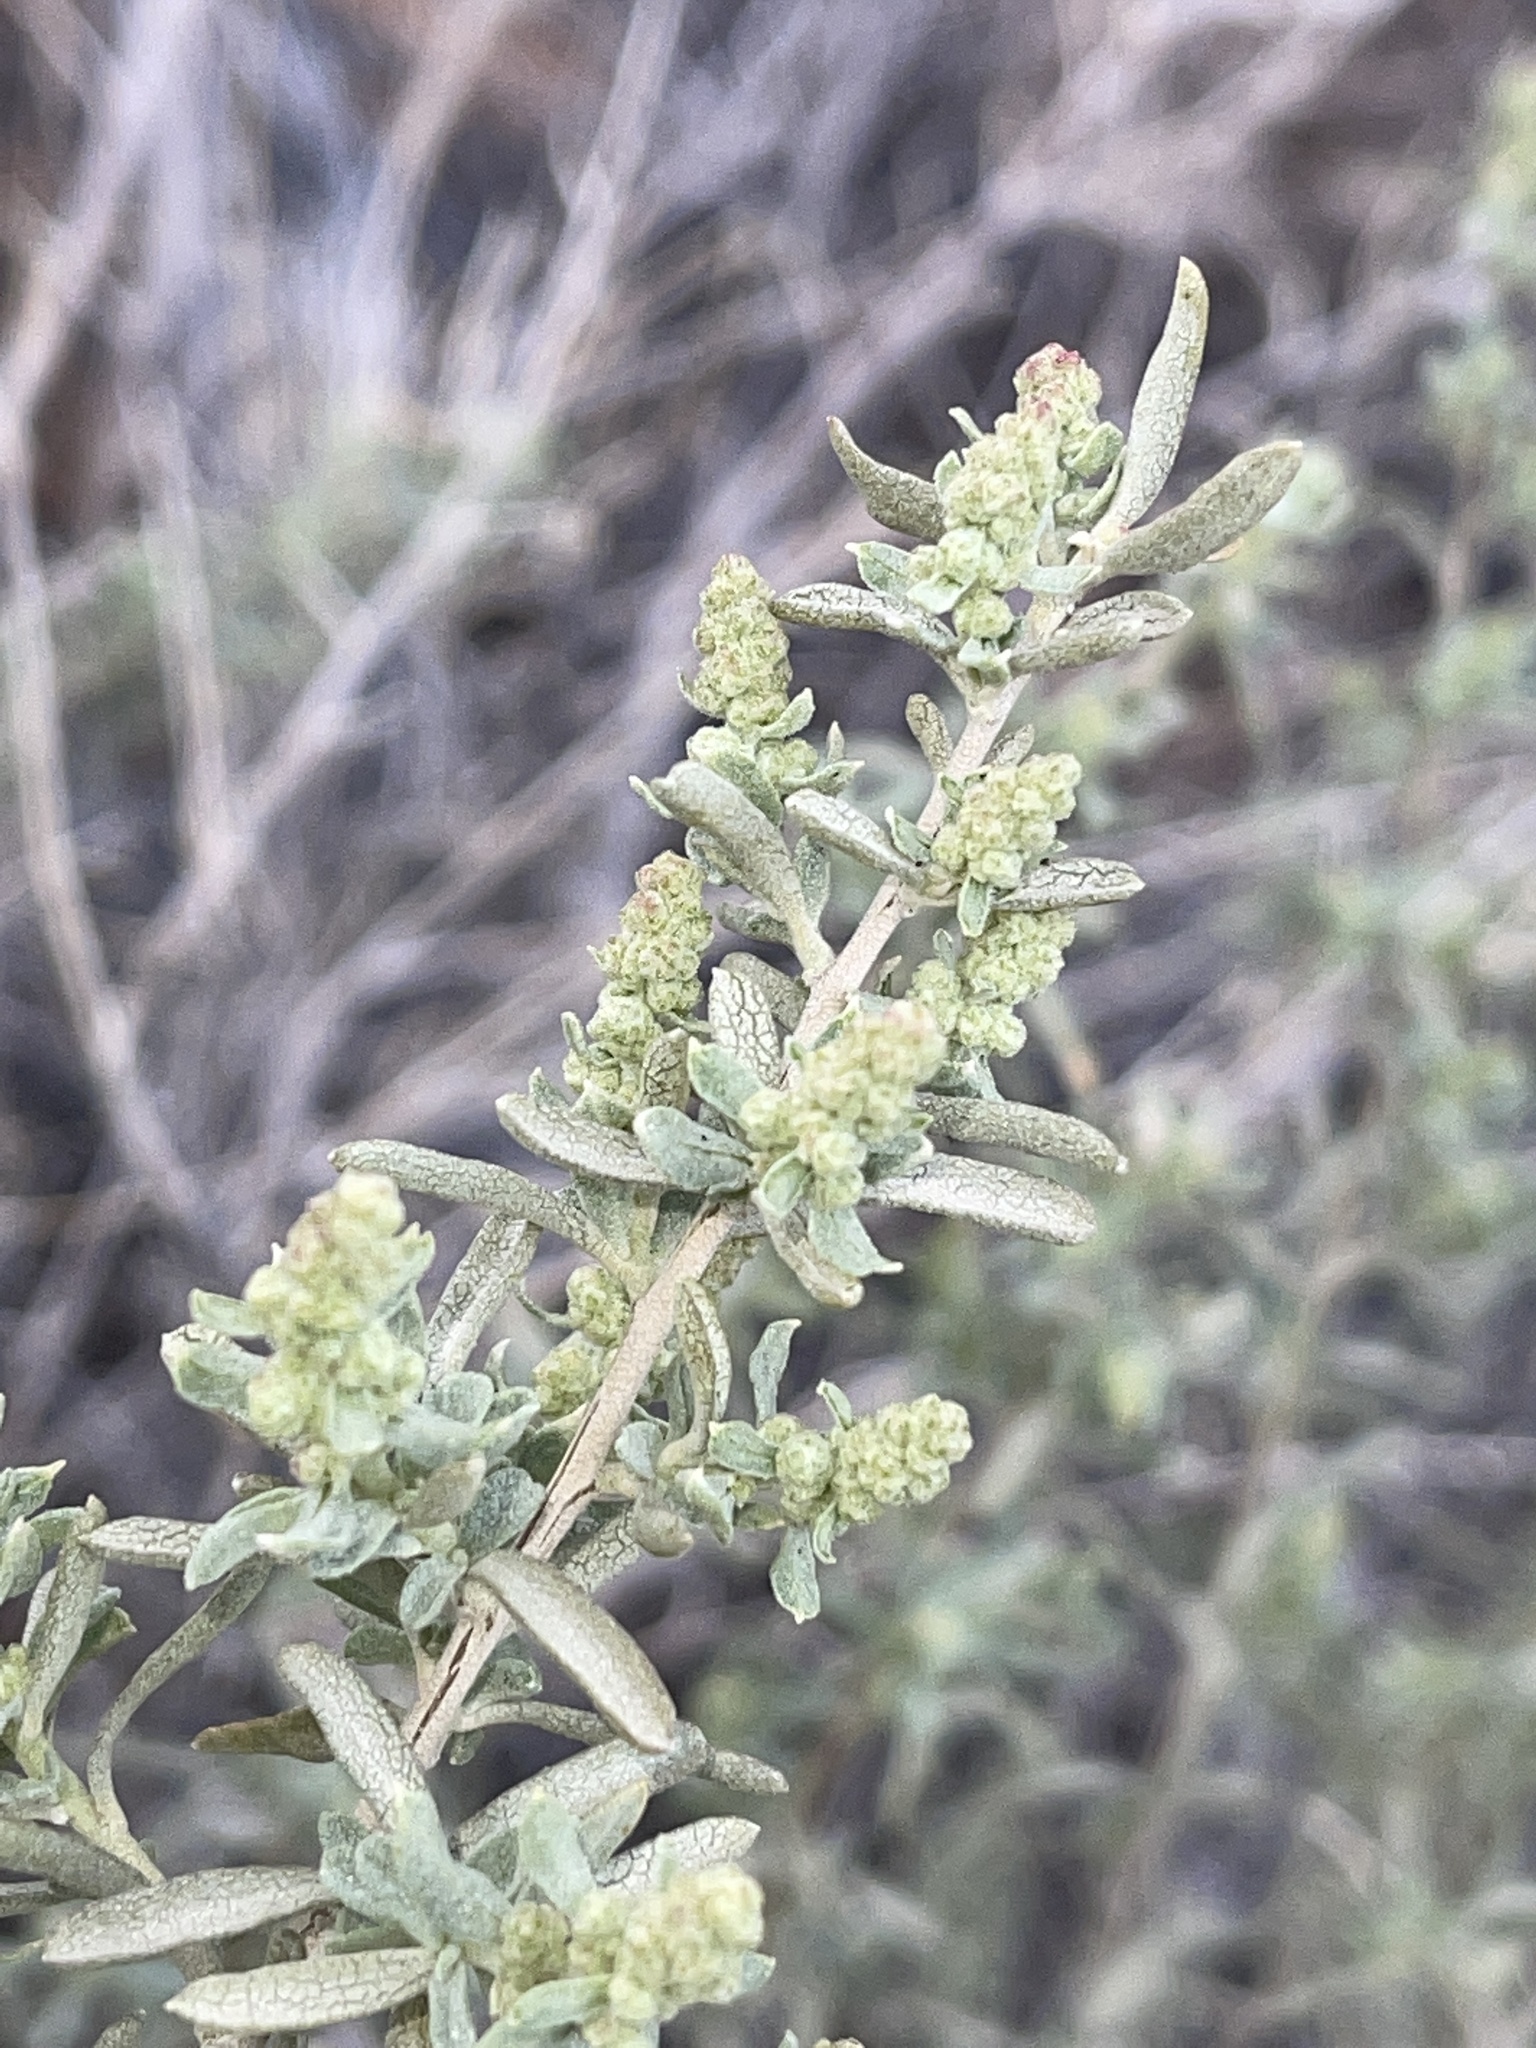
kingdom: Plantae
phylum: Tracheophyta
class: Magnoliopsida
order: Caryophyllales
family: Amaranthaceae
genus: Atriplex
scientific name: Atriplex canescens
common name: Four-wing saltbush
